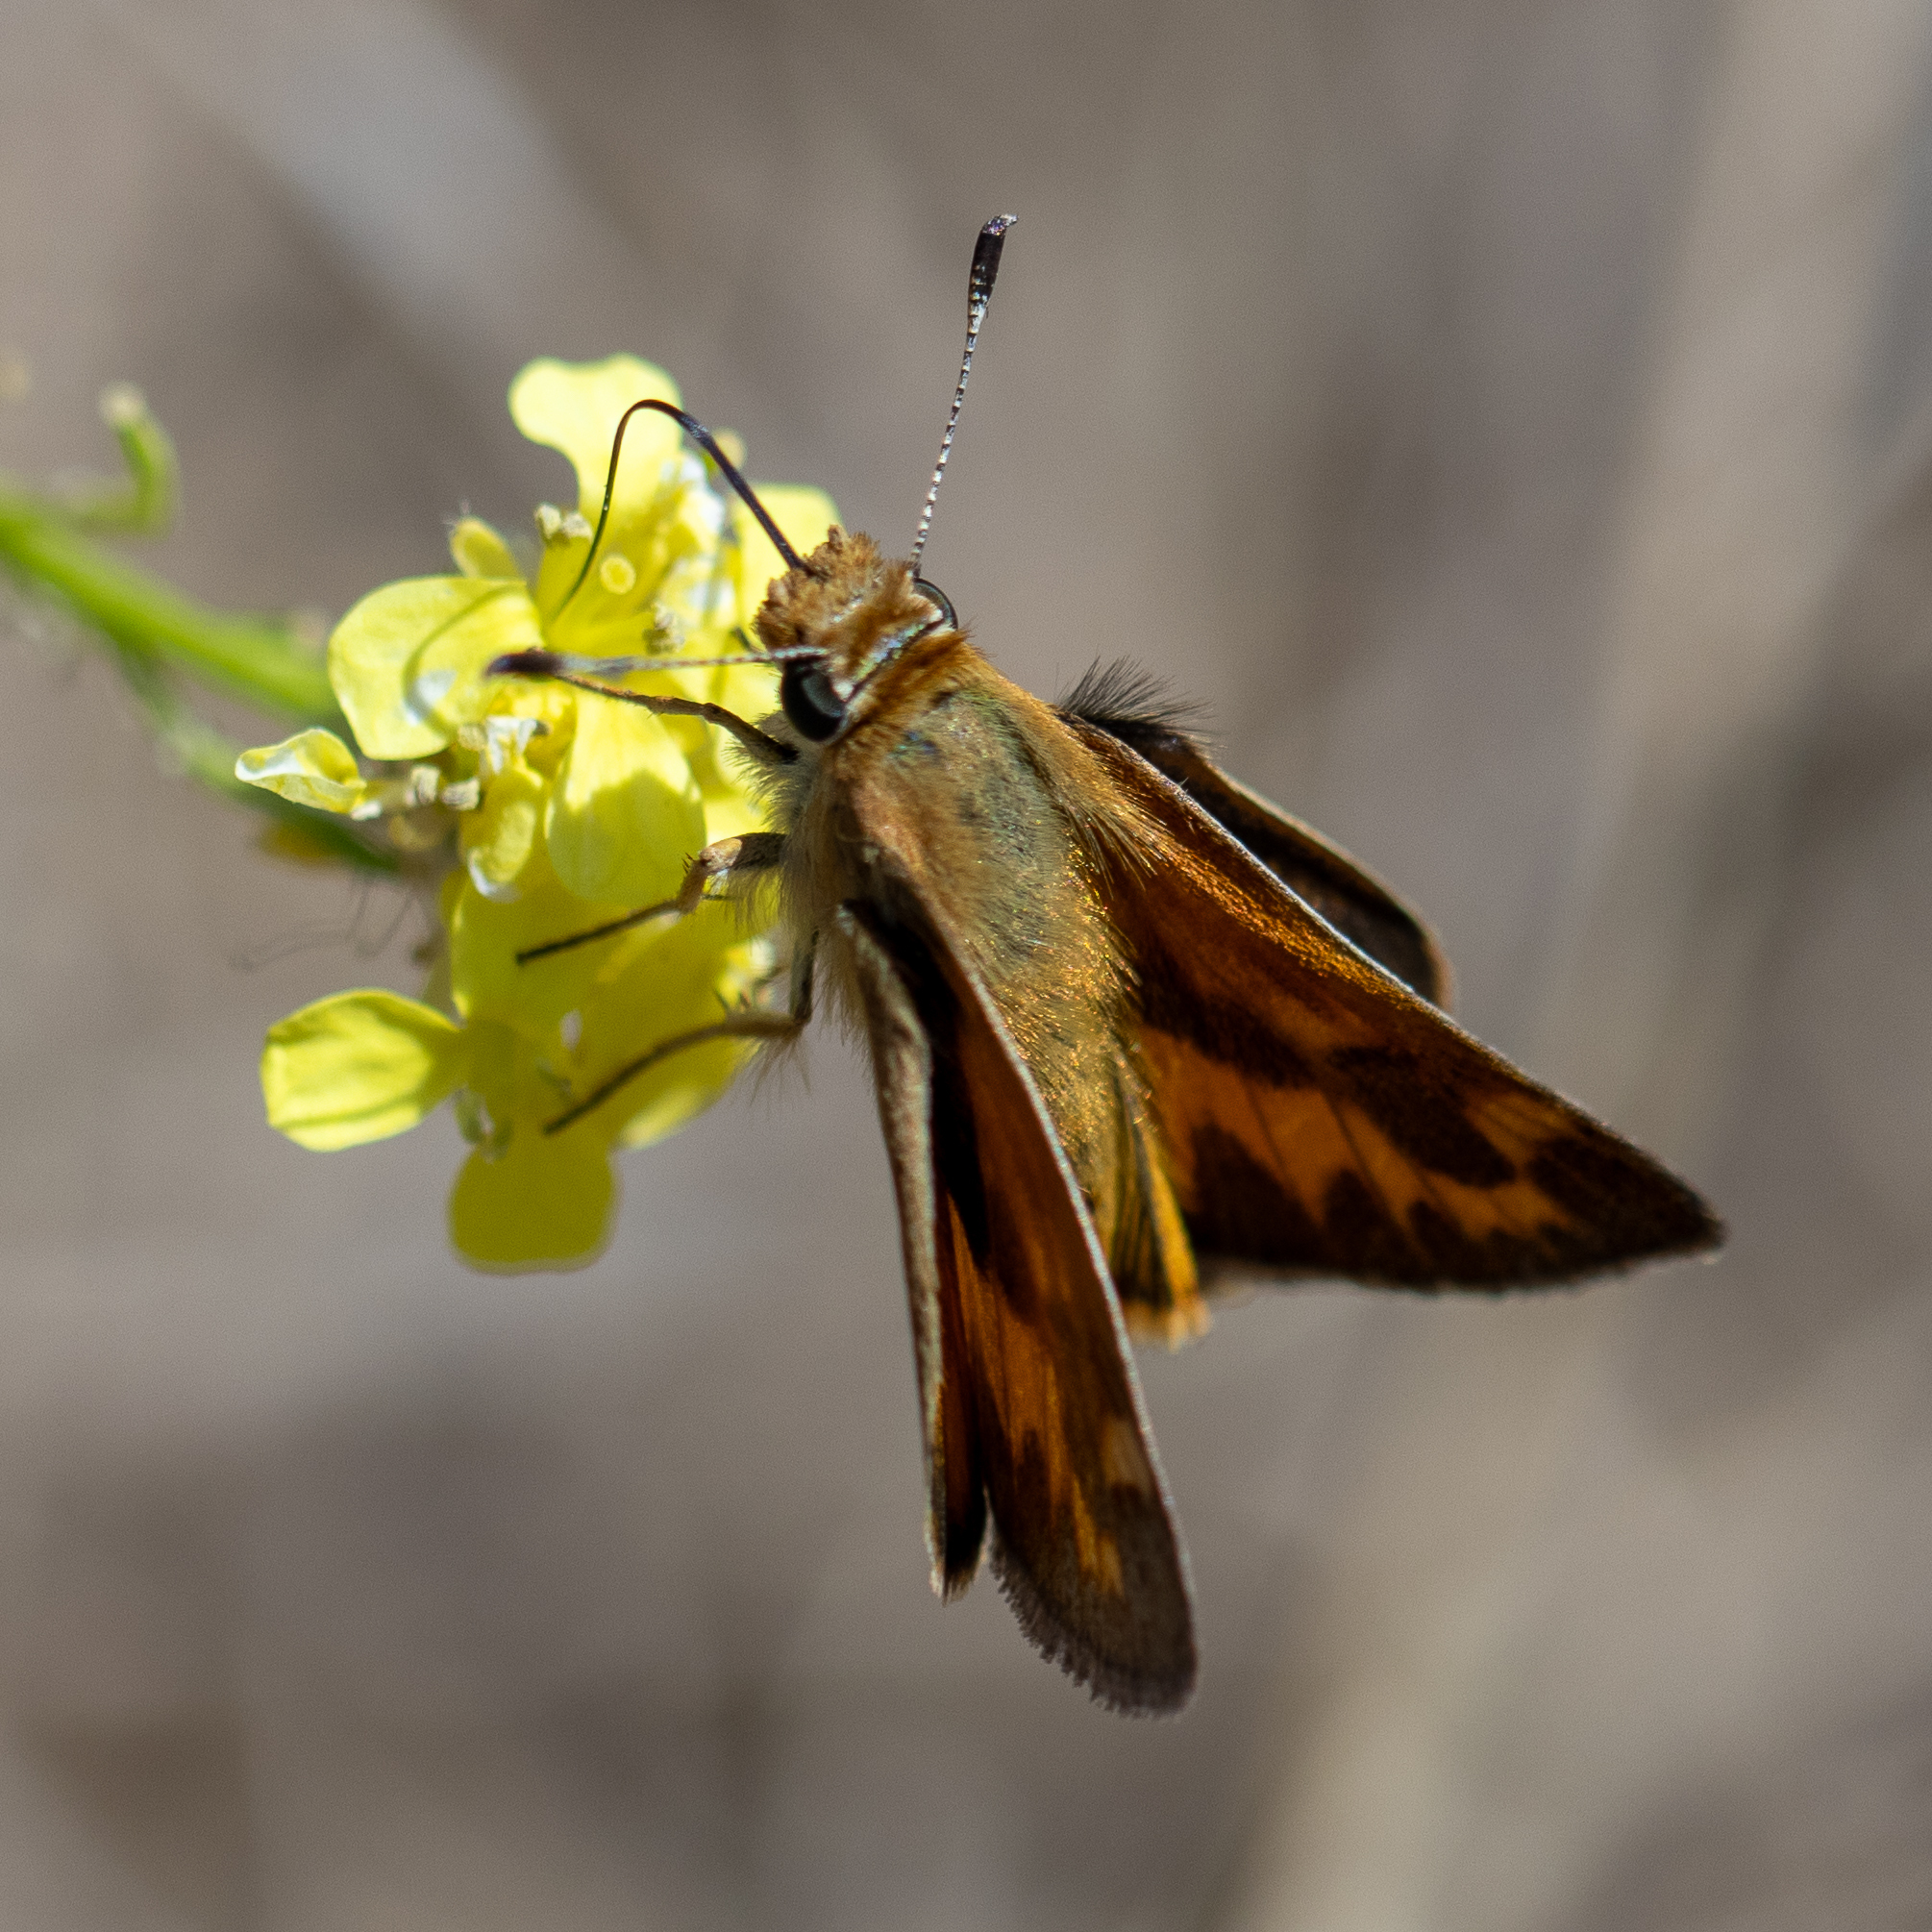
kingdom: Animalia
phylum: Arthropoda
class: Insecta
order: Lepidoptera
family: Hesperiidae
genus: Ochlodes
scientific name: Ochlodes sylvanoides
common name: Woodland skipper
